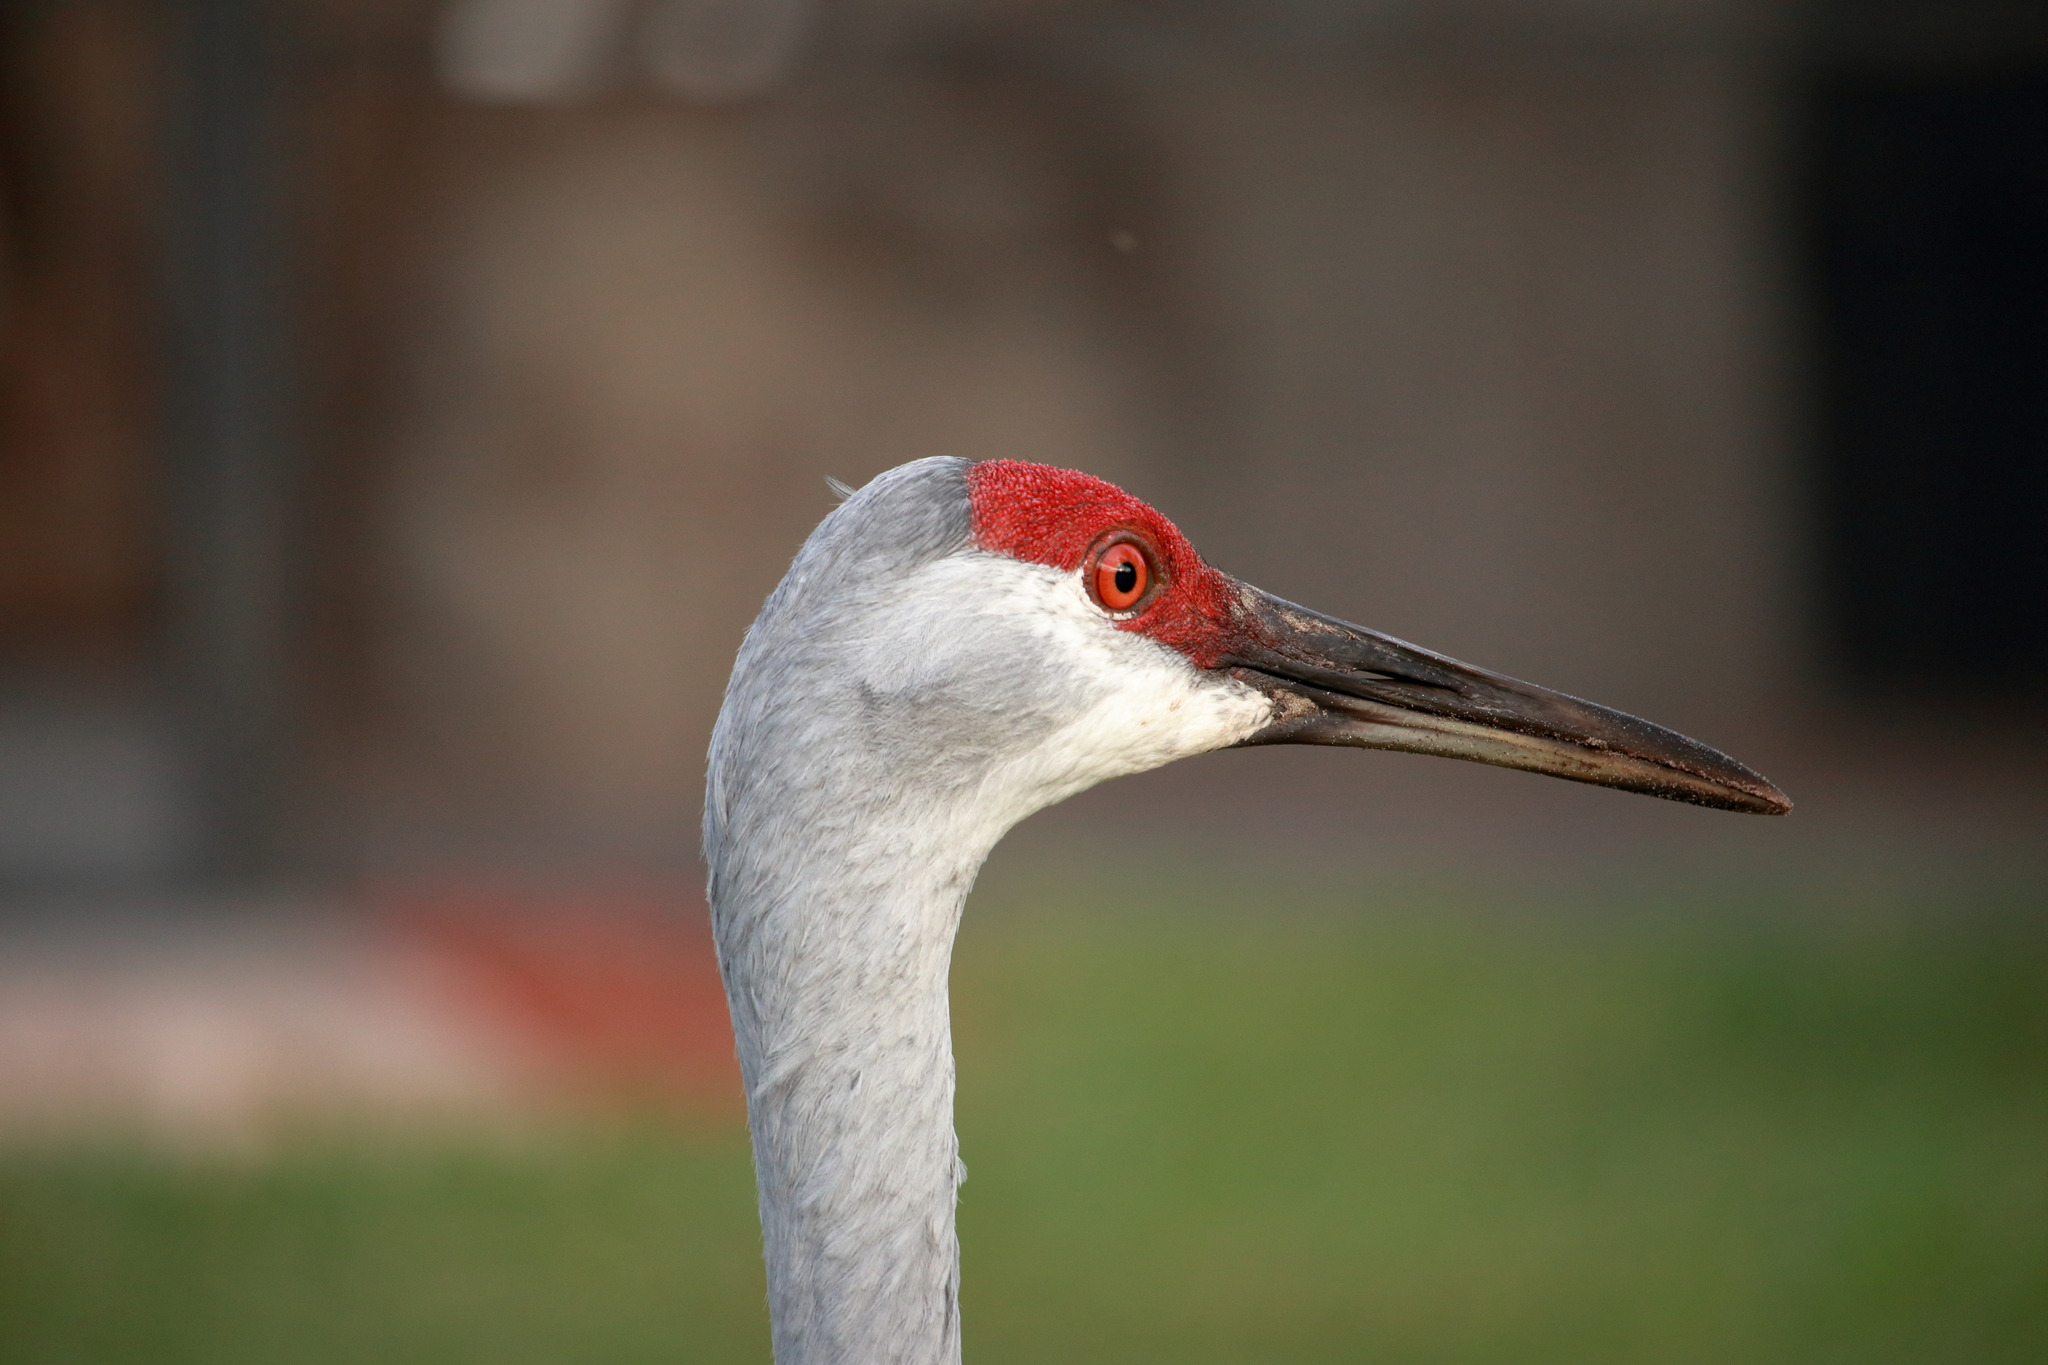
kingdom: Animalia
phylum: Chordata
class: Aves
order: Gruiformes
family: Gruidae
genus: Grus
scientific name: Grus canadensis
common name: Sandhill crane
